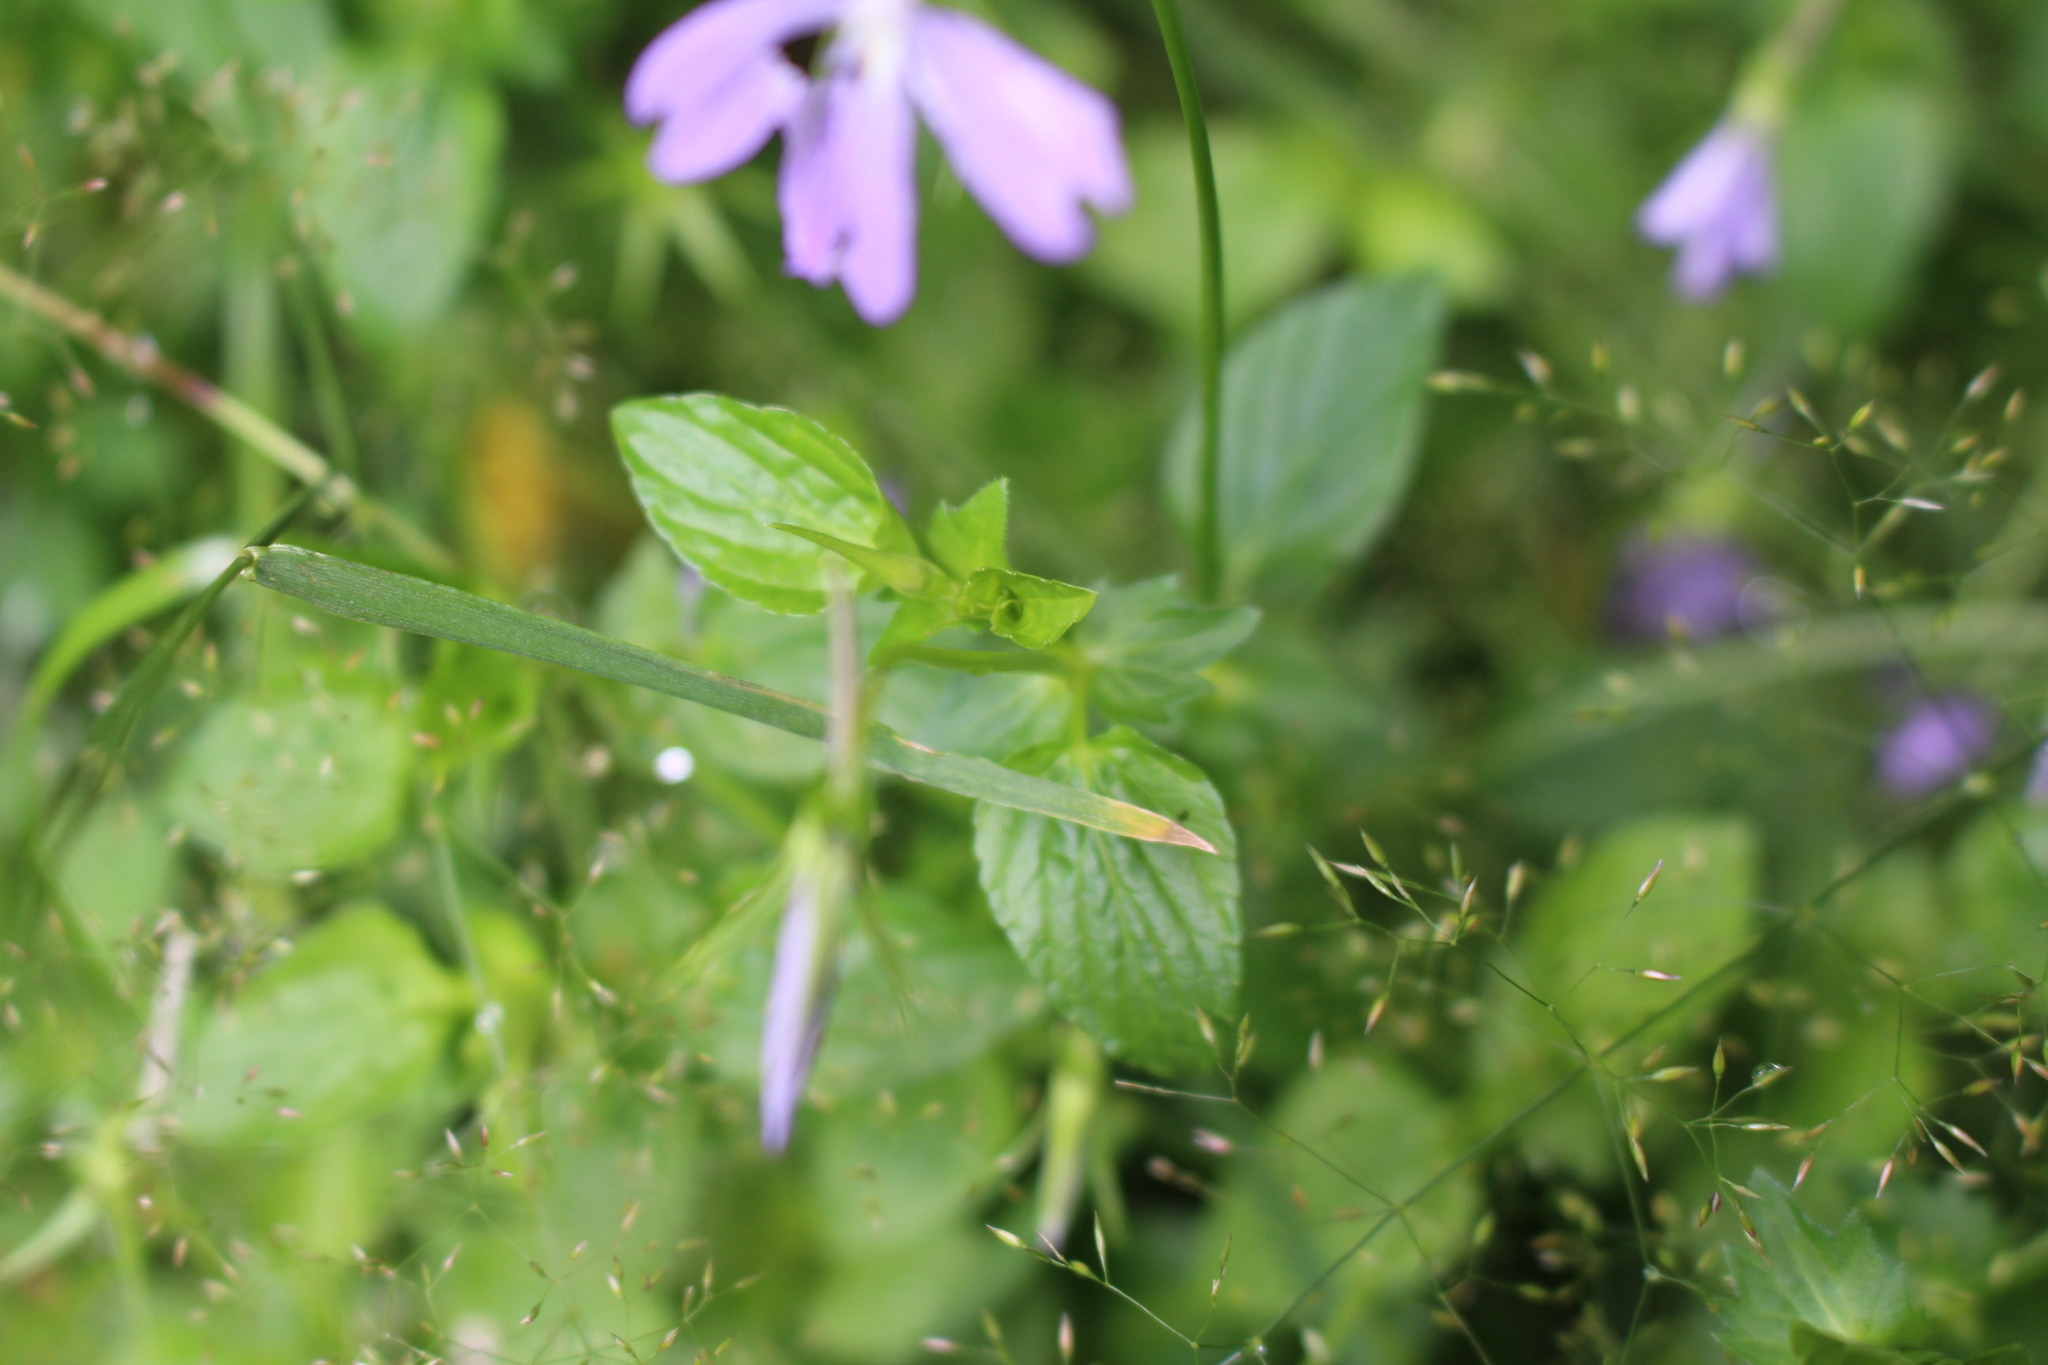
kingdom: Plantae
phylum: Tracheophyta
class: Magnoliopsida
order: Malpighiales
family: Violaceae
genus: Viola
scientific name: Viola cornuta
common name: Horned pansy
